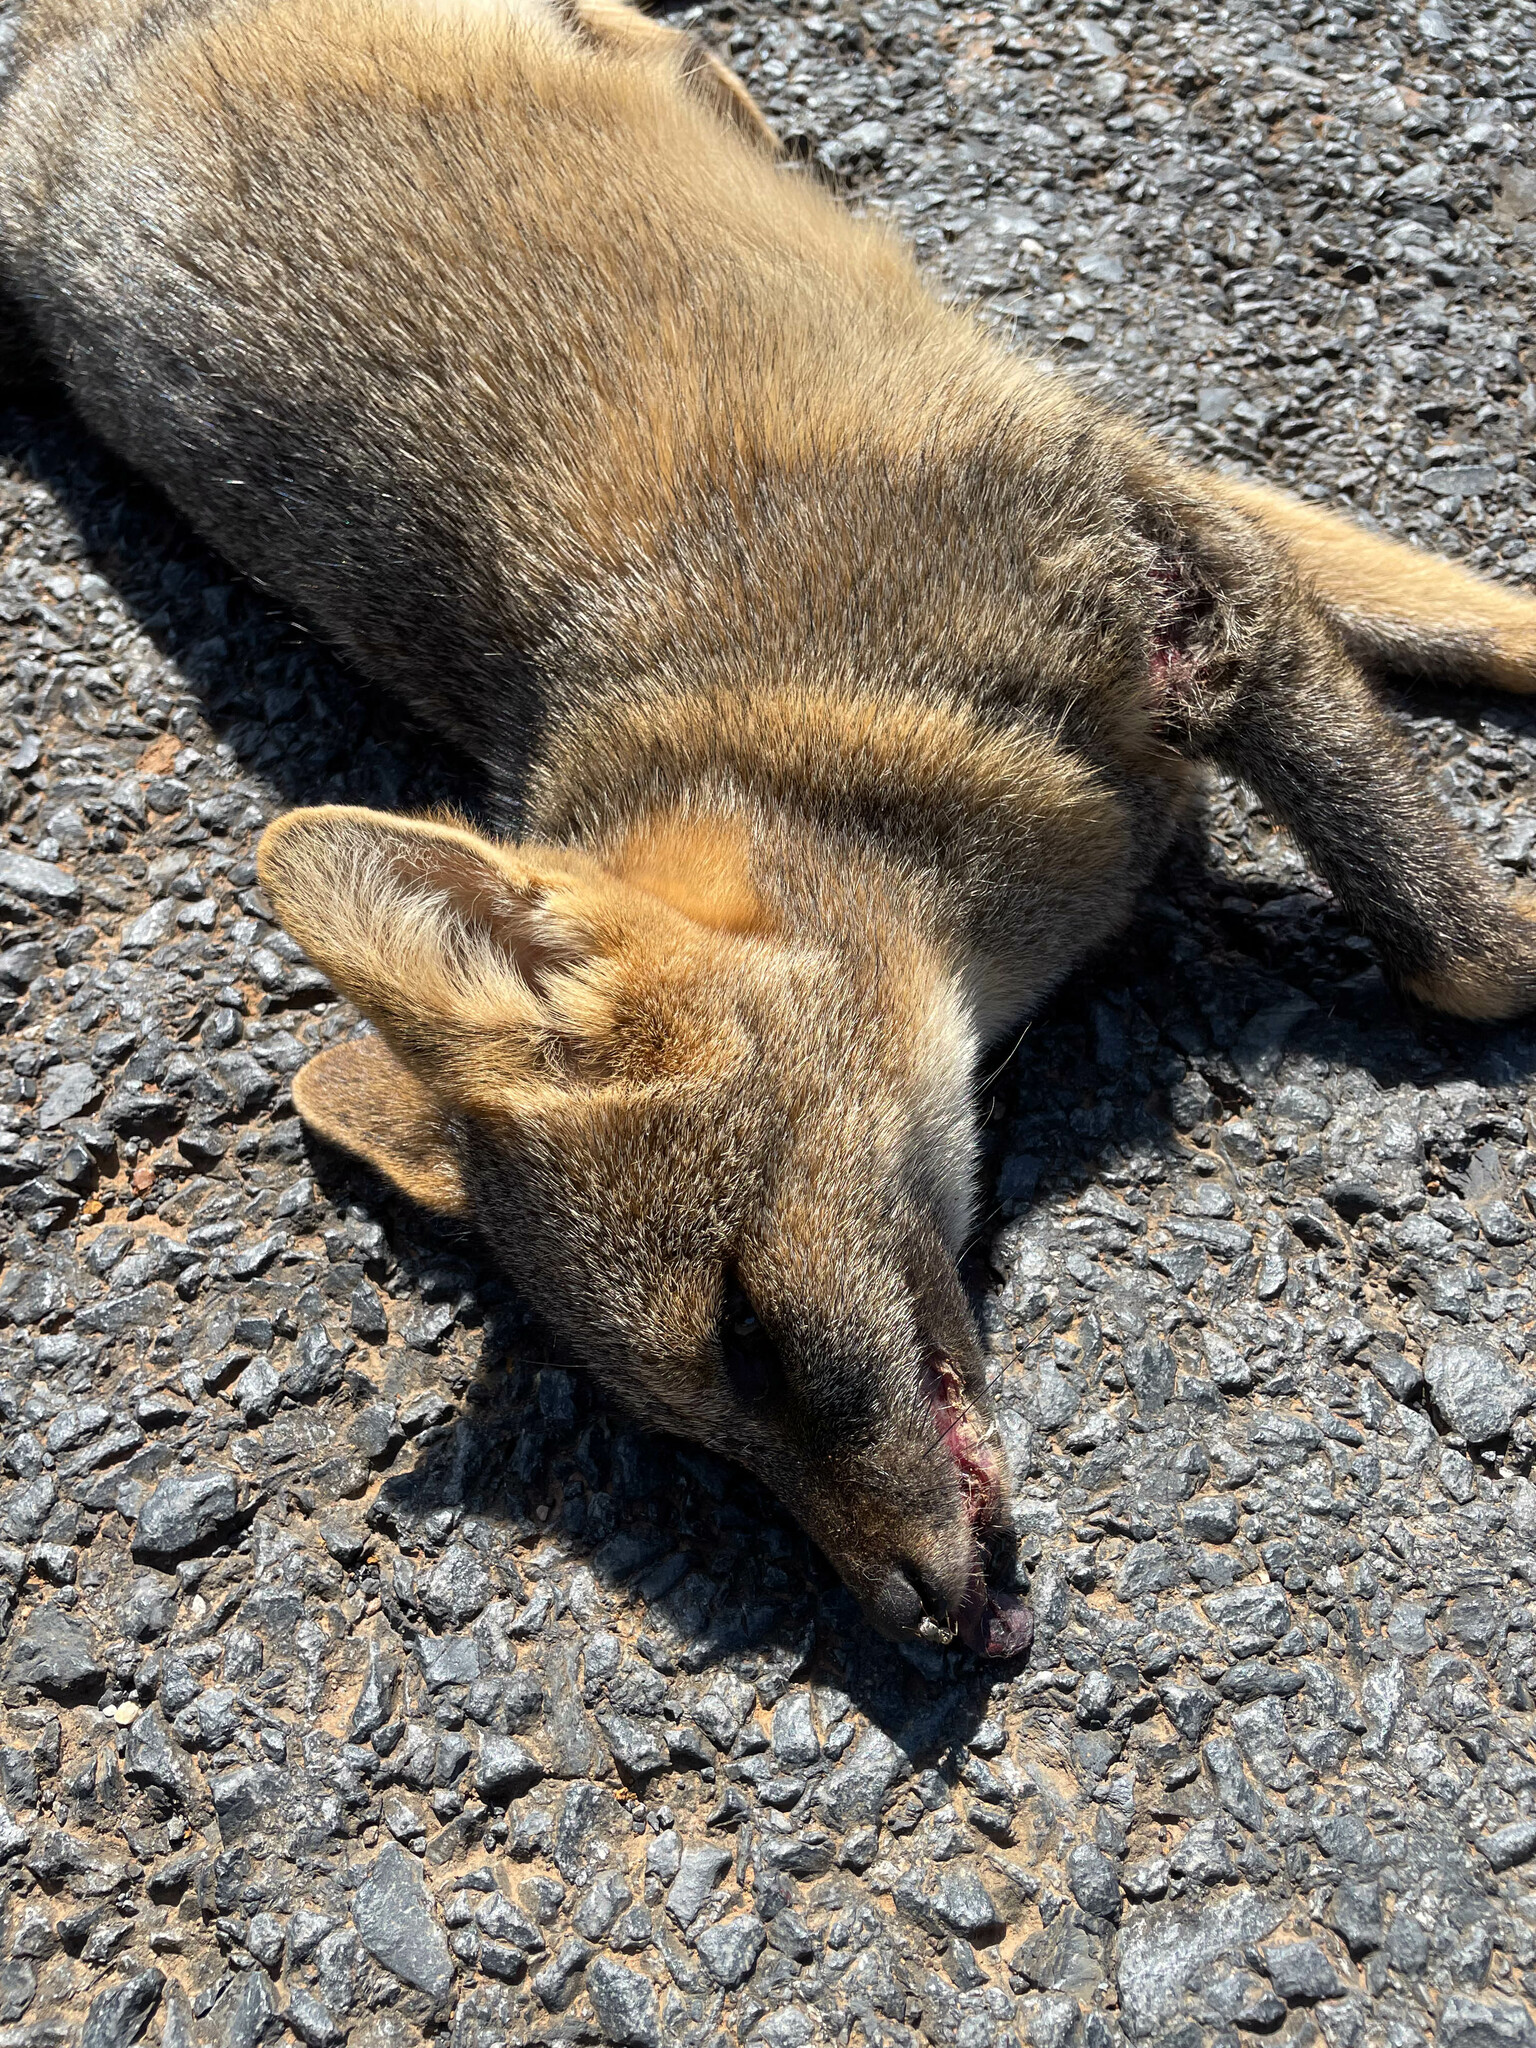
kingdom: Animalia
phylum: Chordata
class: Mammalia
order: Carnivora
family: Canidae
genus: Cerdocyon
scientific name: Cerdocyon thous
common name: Crab-eating fox
